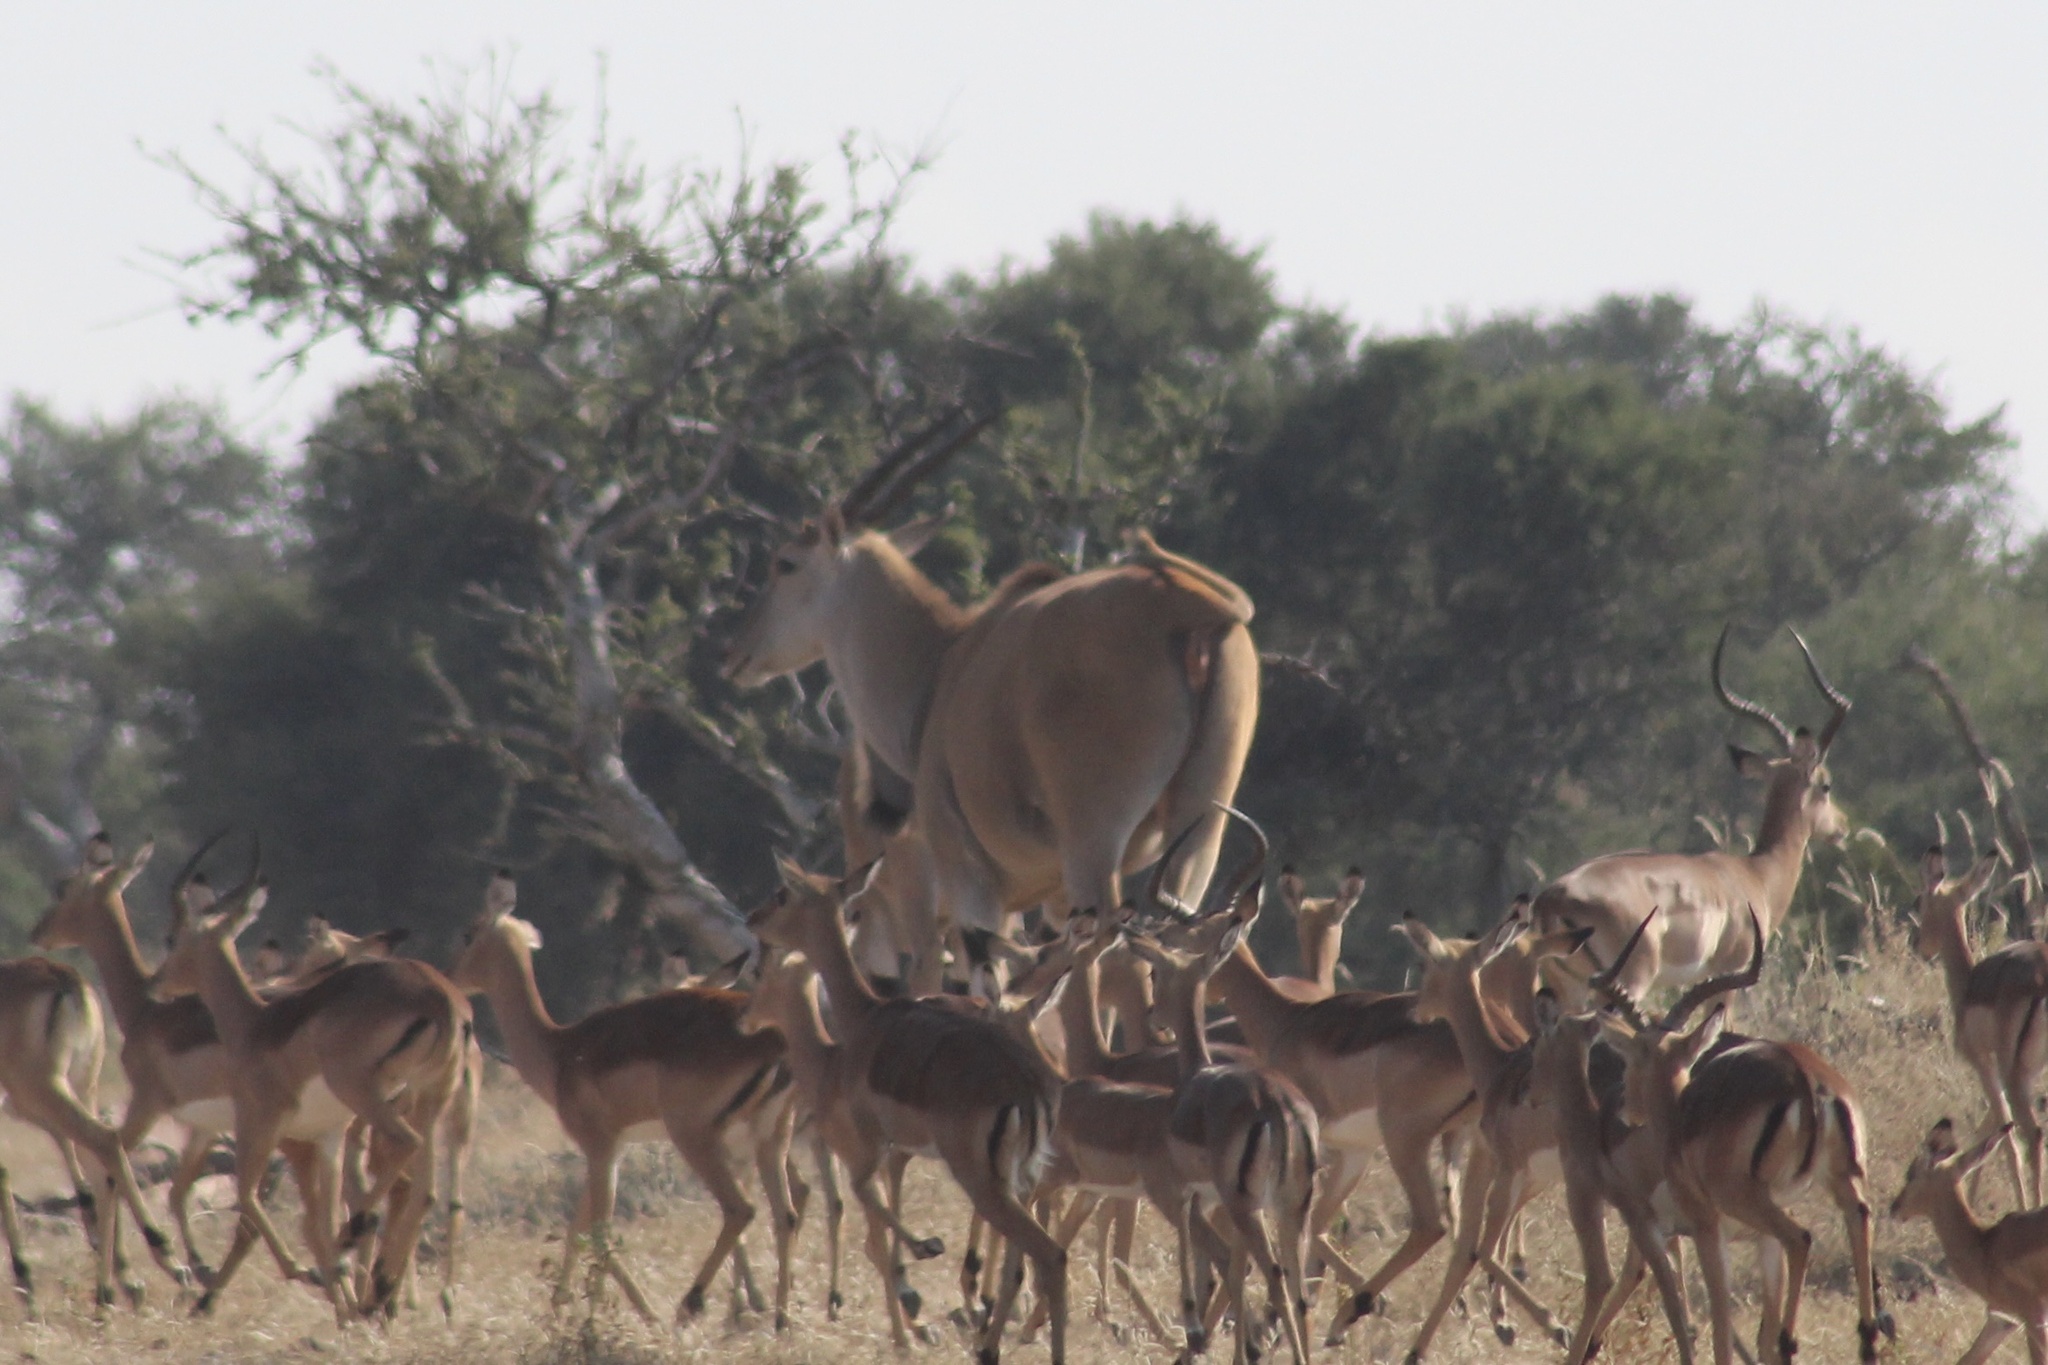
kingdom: Animalia
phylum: Chordata
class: Mammalia
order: Artiodactyla
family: Bovidae
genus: Taurotragus
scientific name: Taurotragus oryx
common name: Common eland
